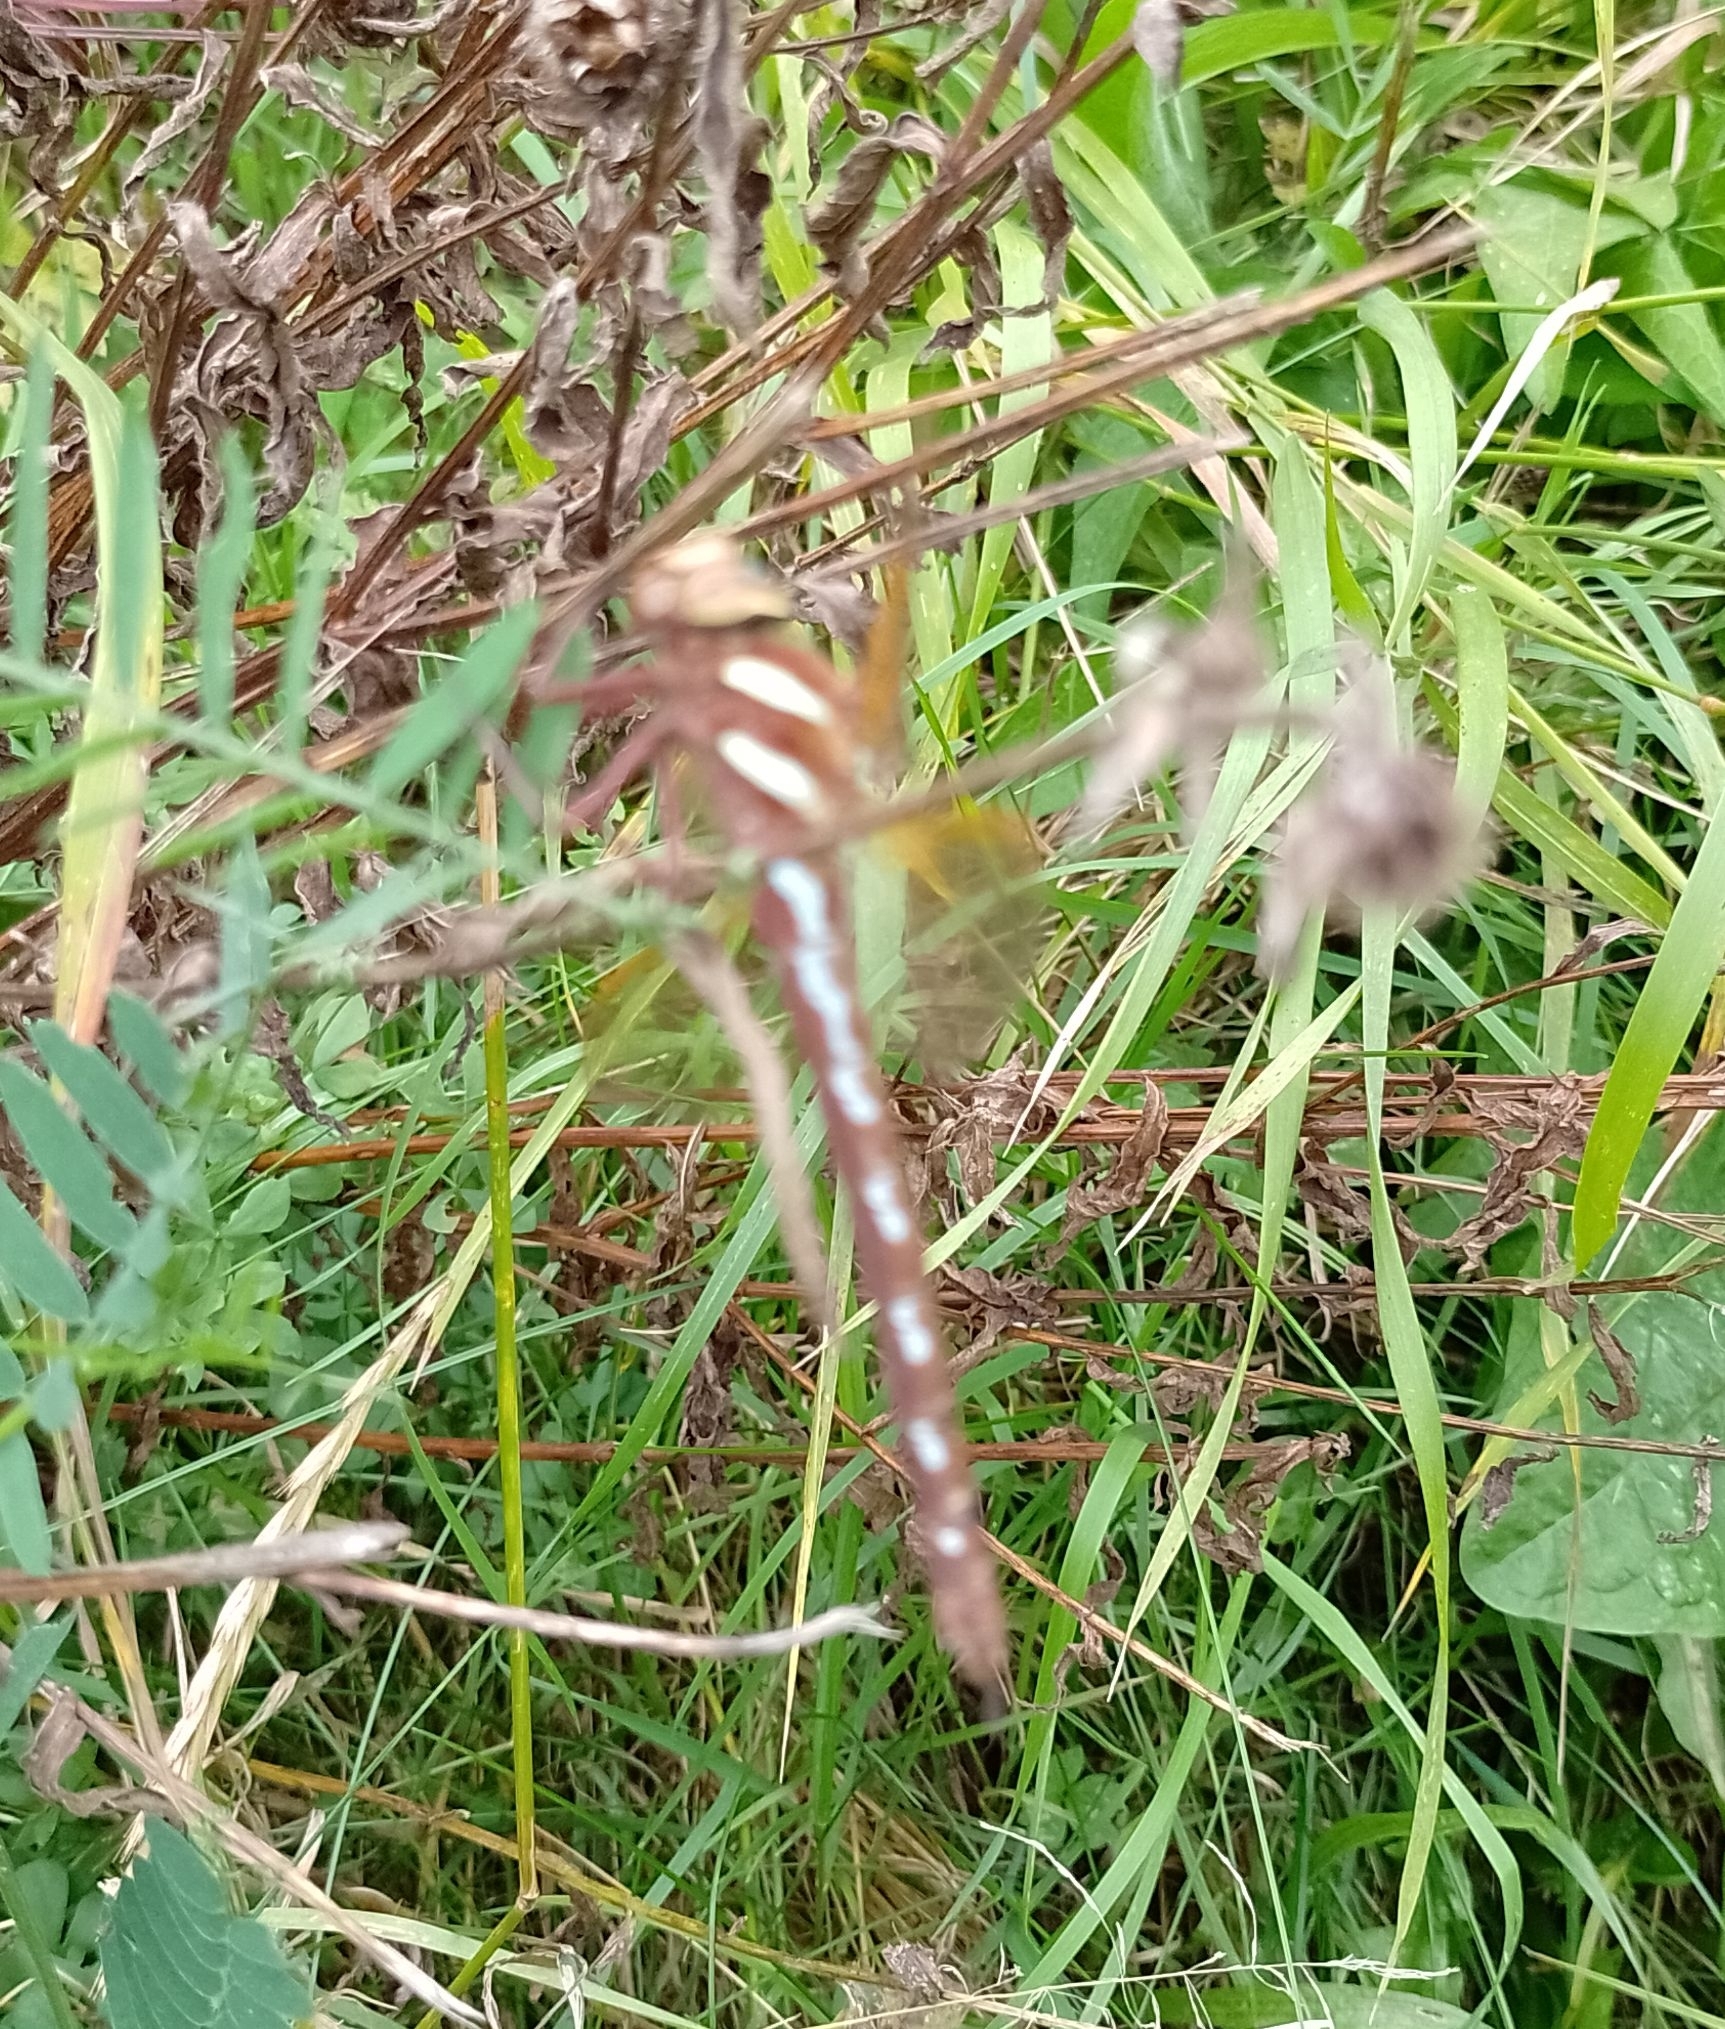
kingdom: Animalia
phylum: Arthropoda
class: Insecta
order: Odonata
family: Aeshnidae
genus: Aeshna
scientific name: Aeshna grandis
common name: Brown hawker
